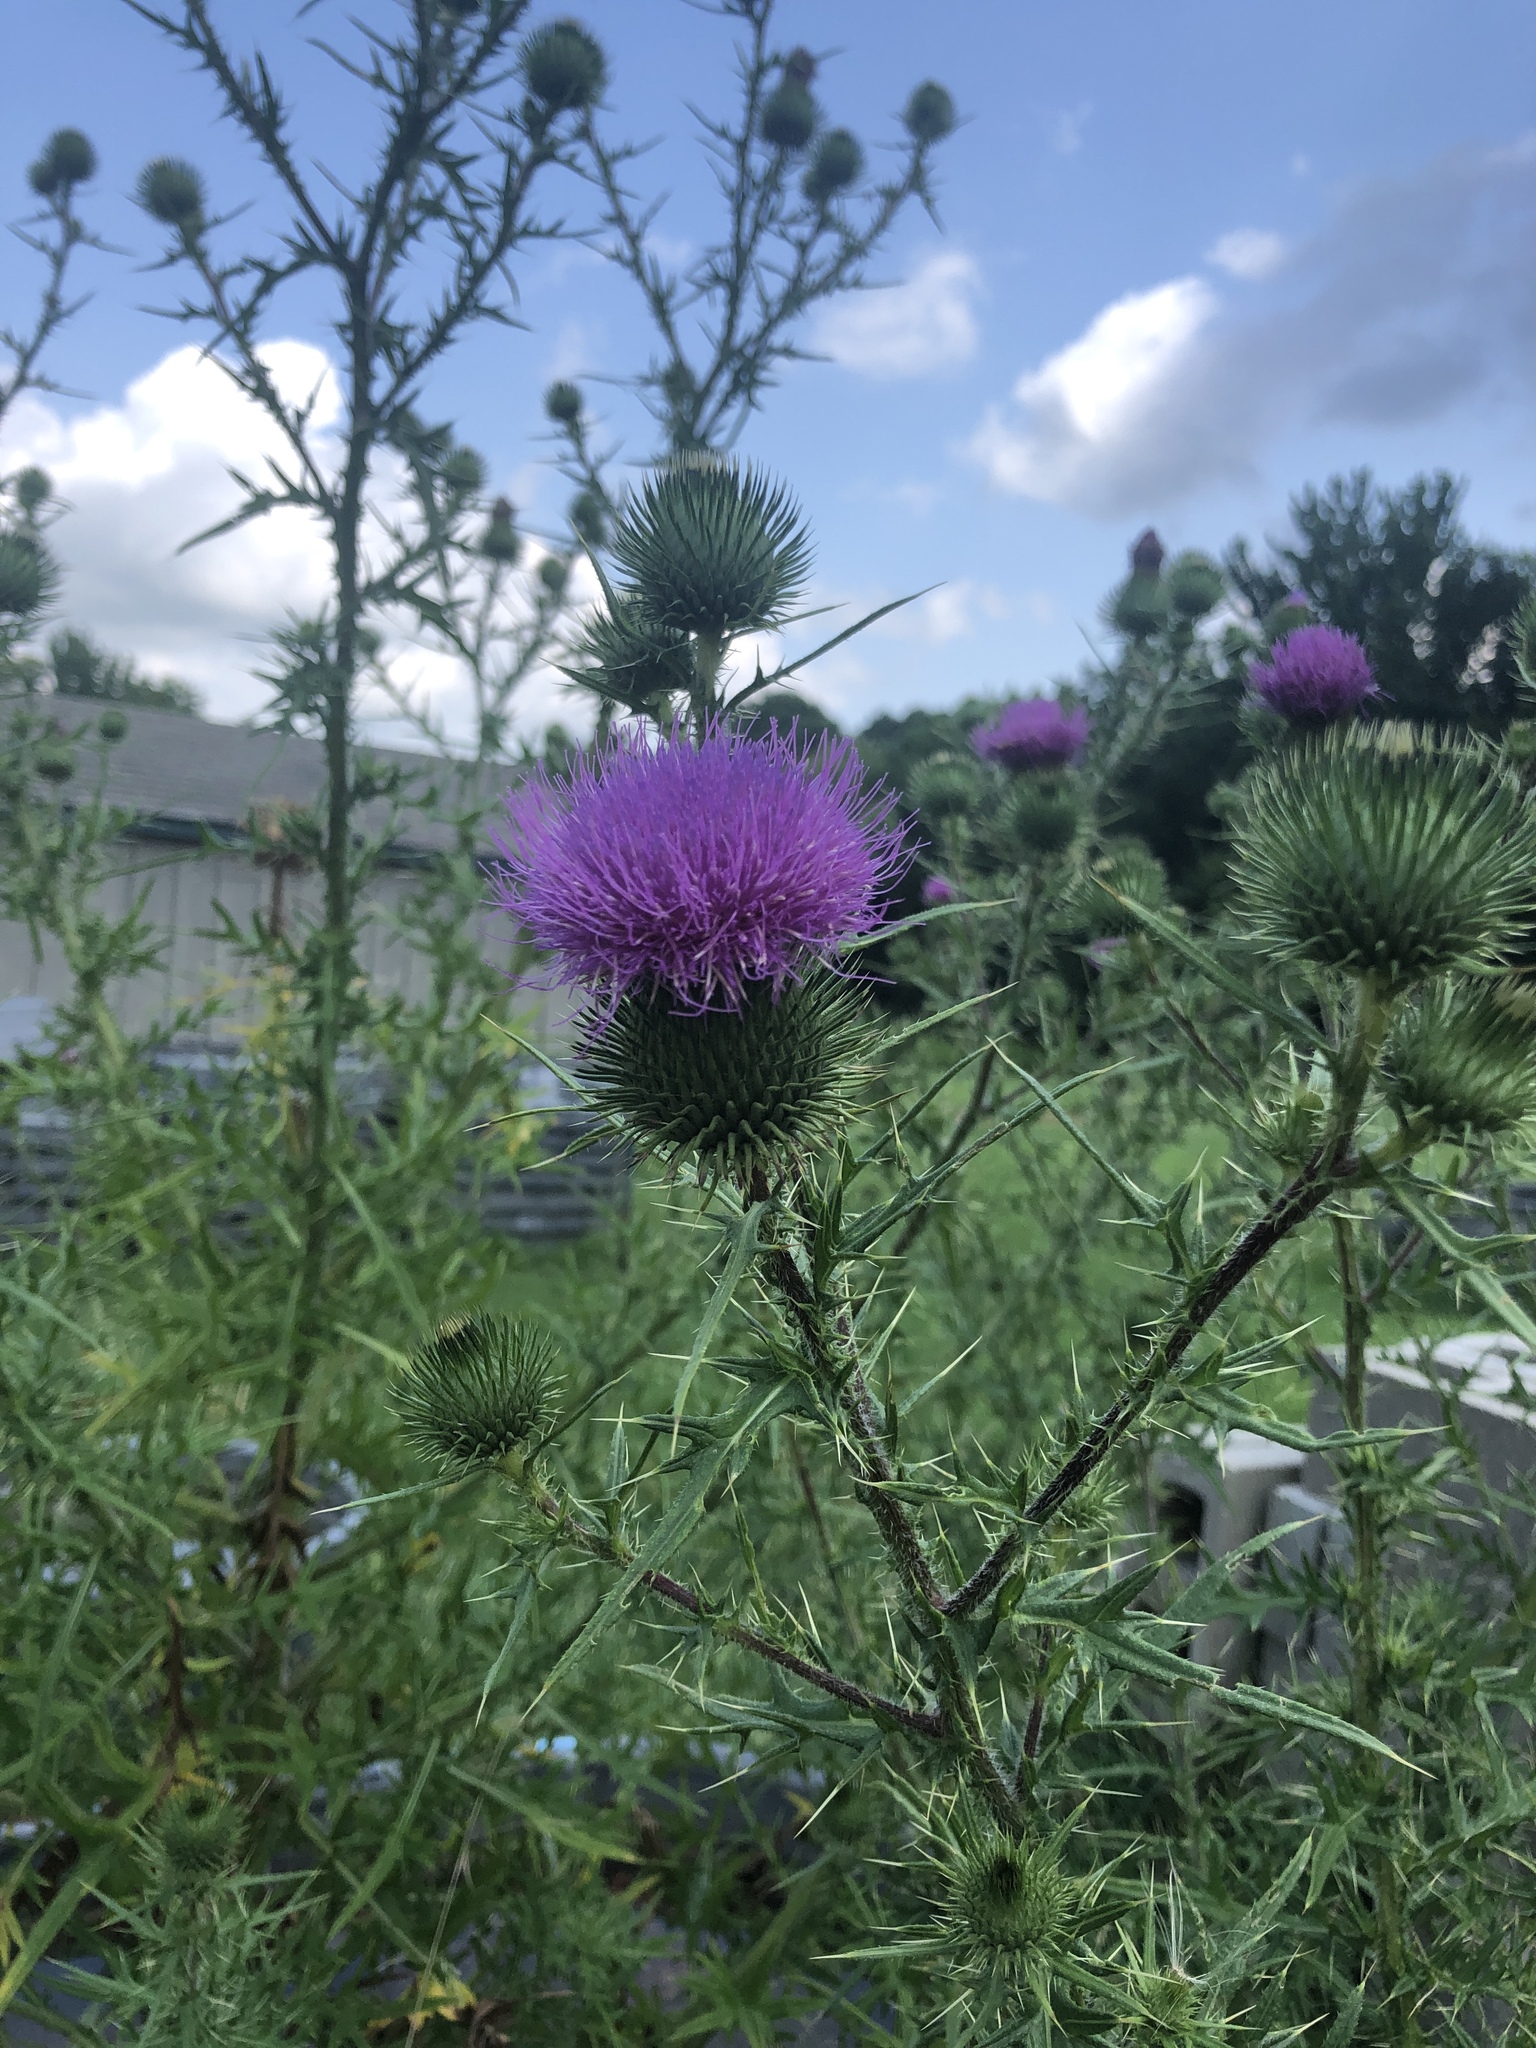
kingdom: Plantae
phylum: Tracheophyta
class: Magnoliopsida
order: Asterales
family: Asteraceae
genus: Cirsium
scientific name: Cirsium vulgare
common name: Bull thistle
